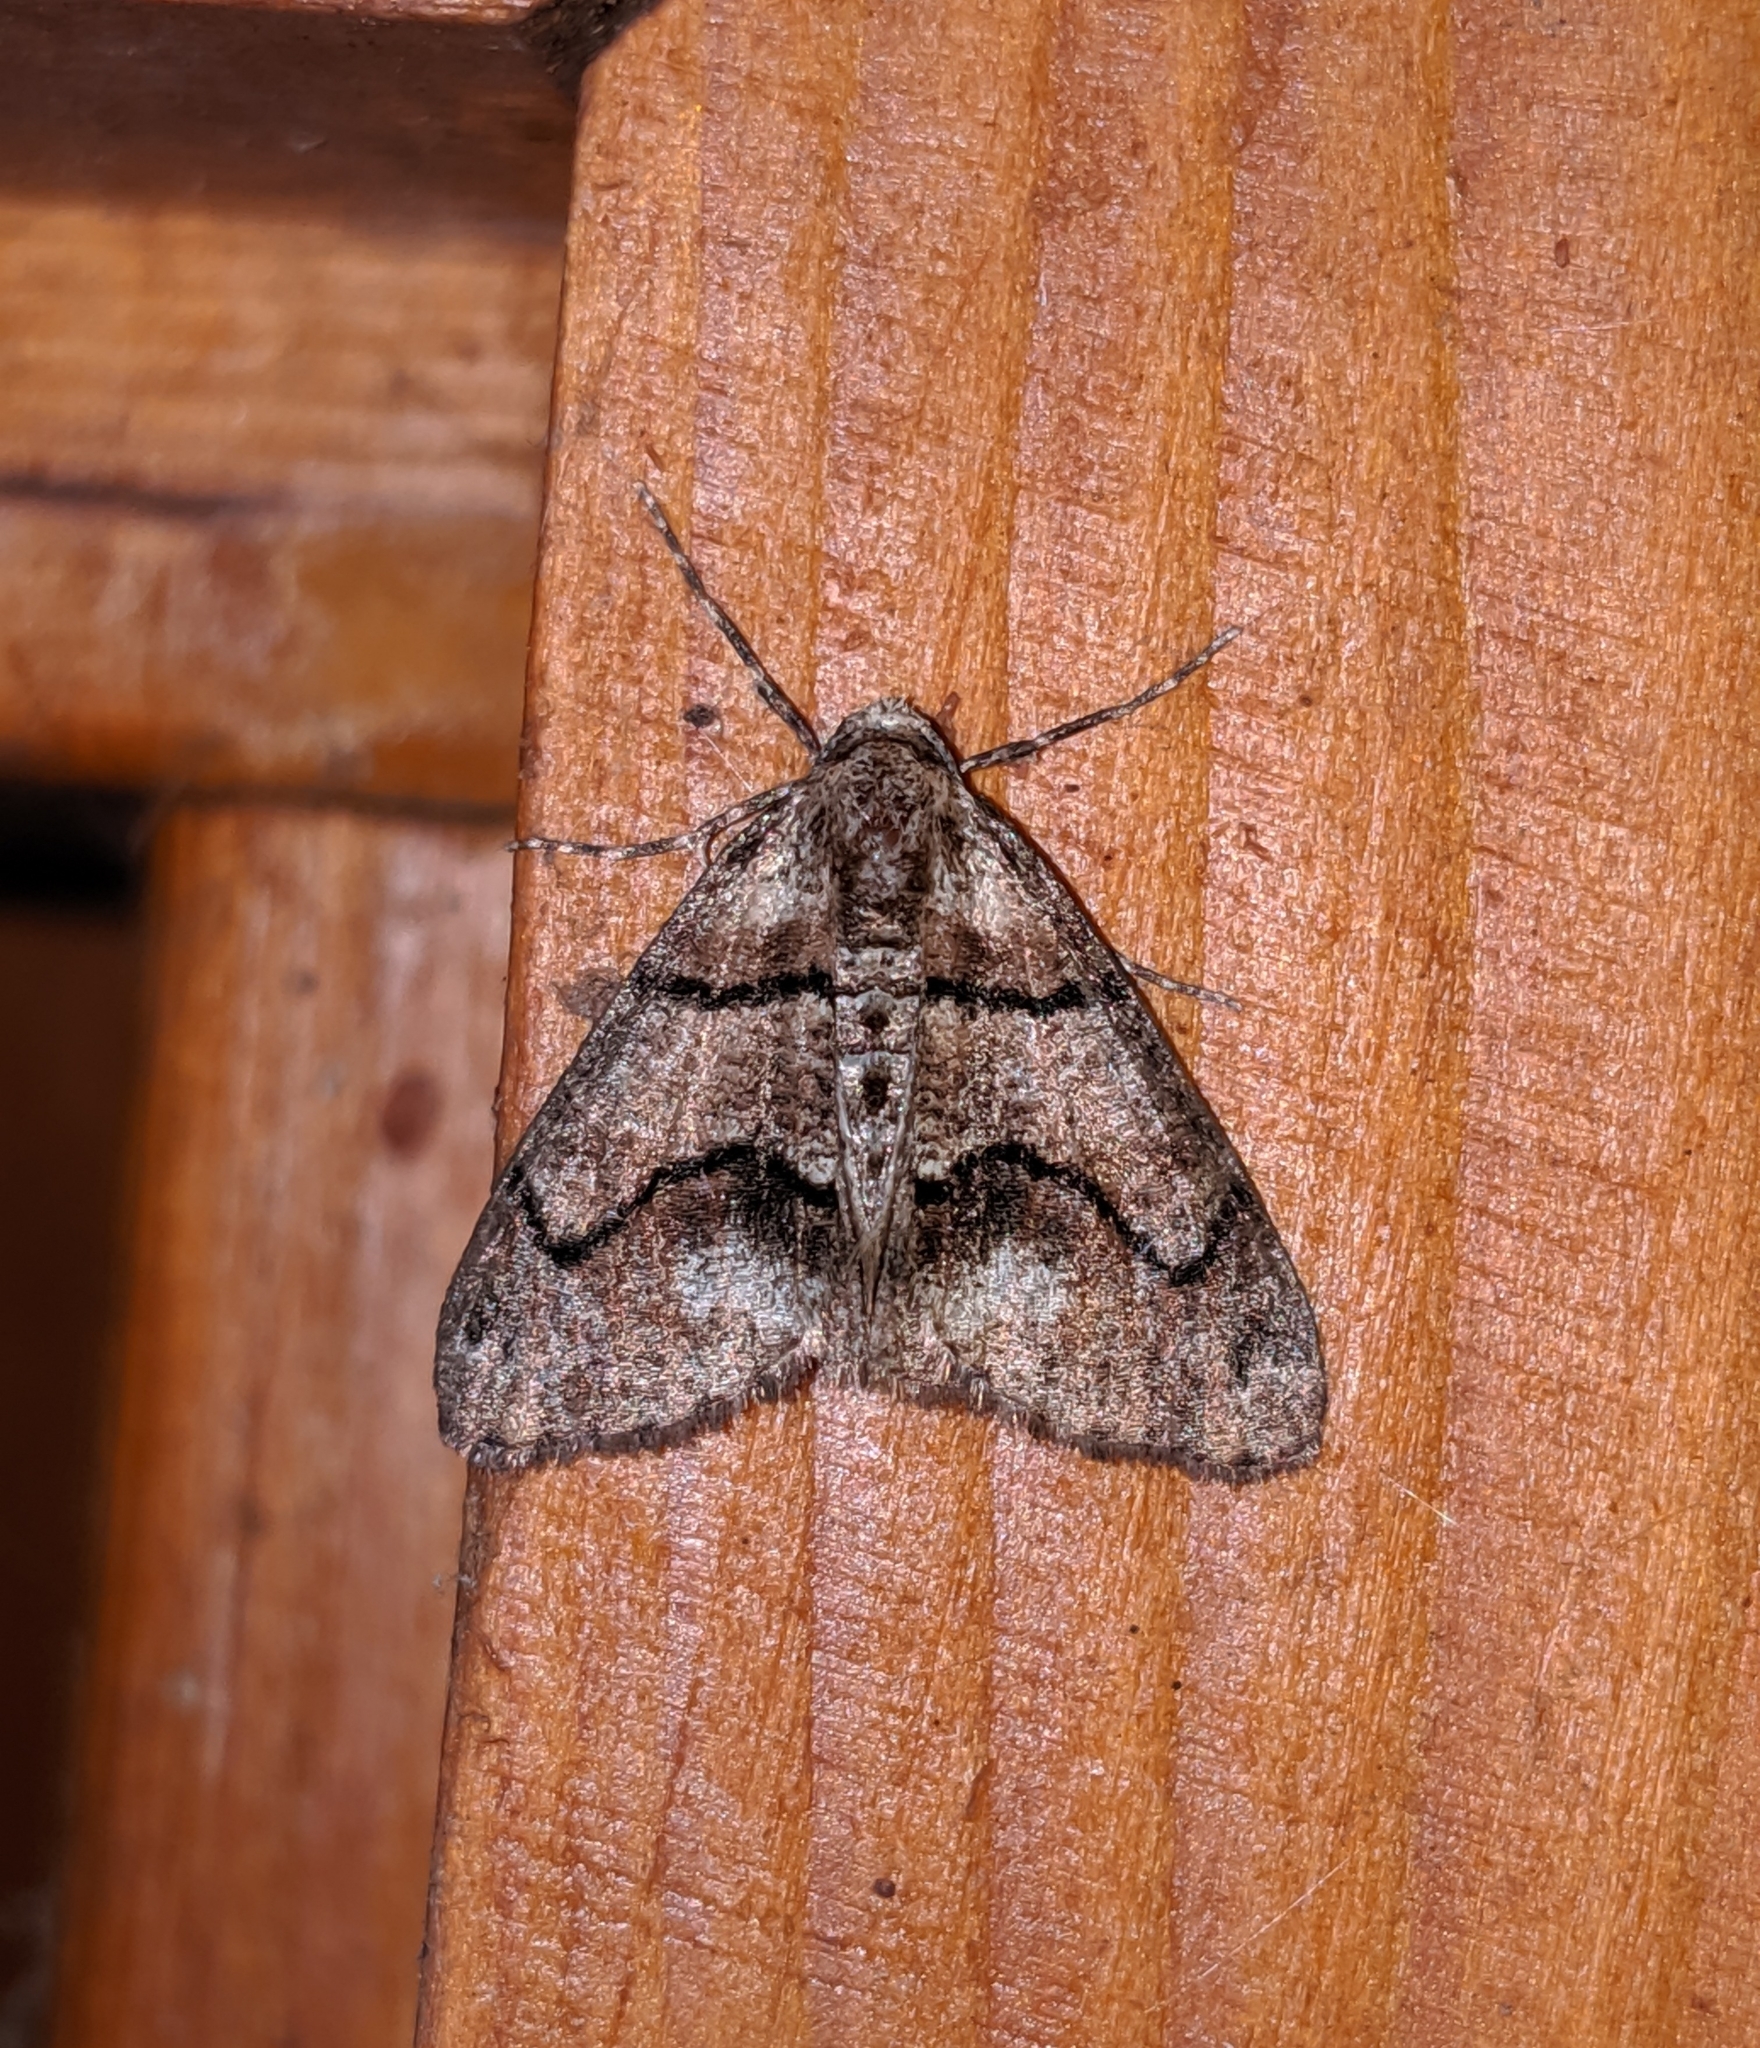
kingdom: Animalia
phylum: Arthropoda
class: Insecta
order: Lepidoptera
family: Geometridae
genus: Gabriola
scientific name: Gabriola dyari
